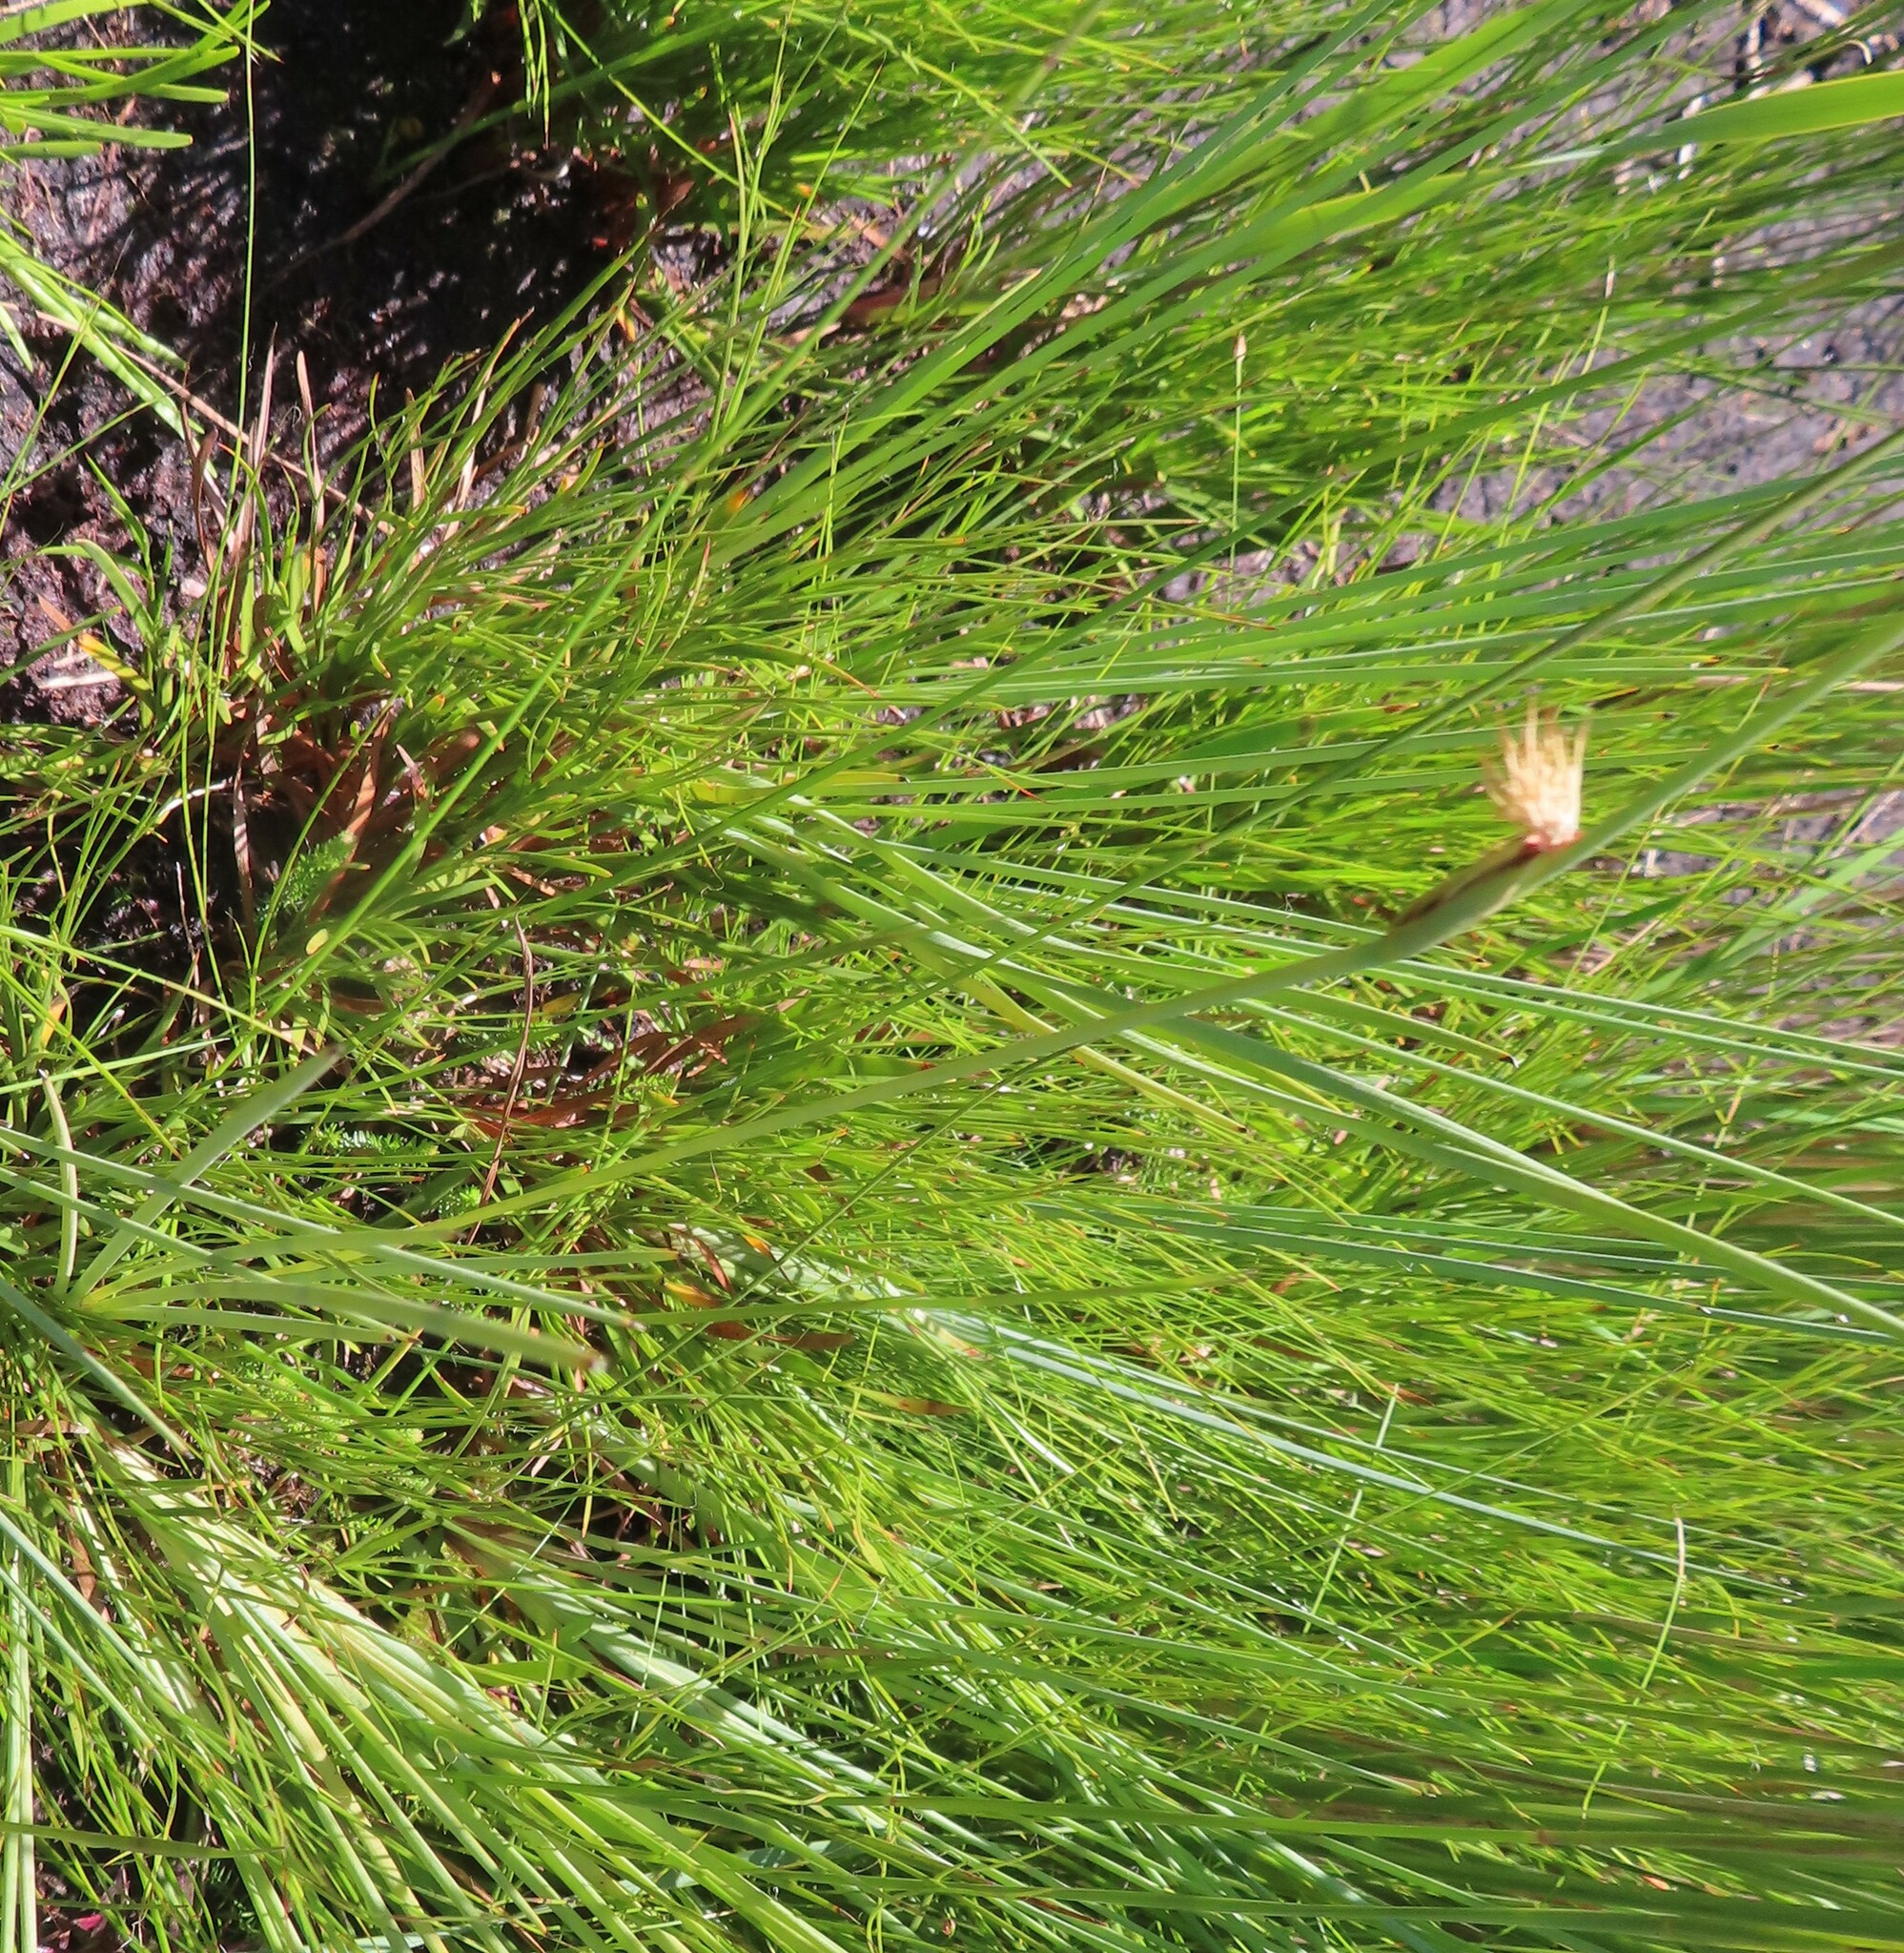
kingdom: Plantae
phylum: Tracheophyta
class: Liliopsida
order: Poales
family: Cyperaceae
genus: Chrysitrix
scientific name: Chrysitrix capensis
